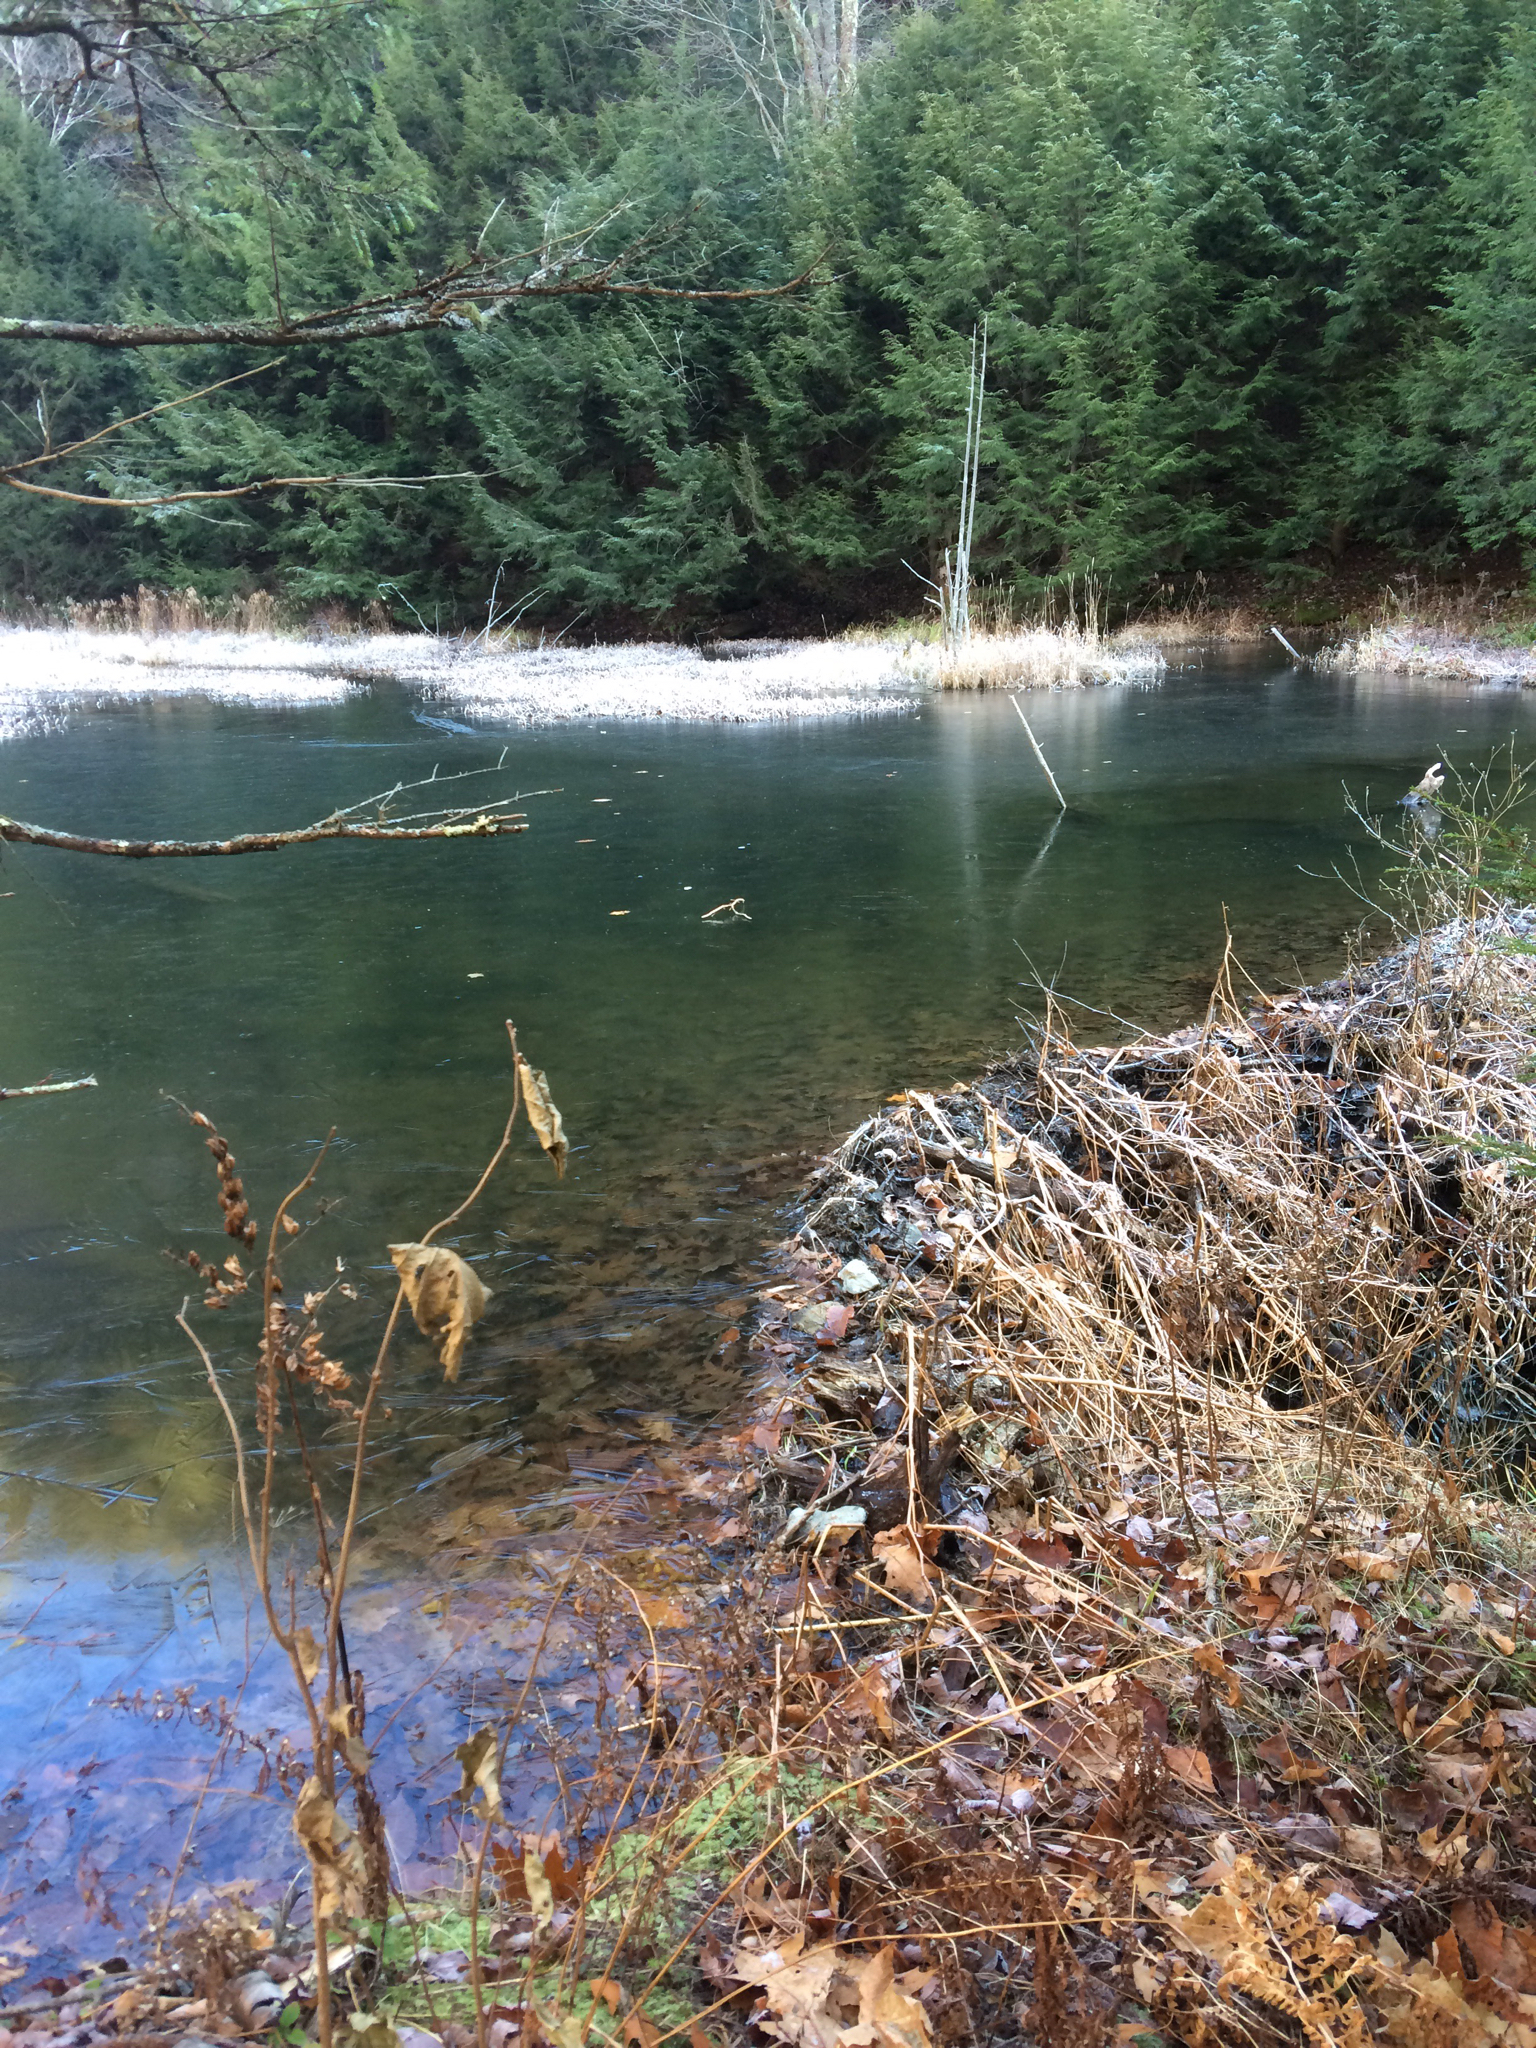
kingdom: Animalia
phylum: Chordata
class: Mammalia
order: Rodentia
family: Castoridae
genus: Castor
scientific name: Castor canadensis
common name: American beaver
